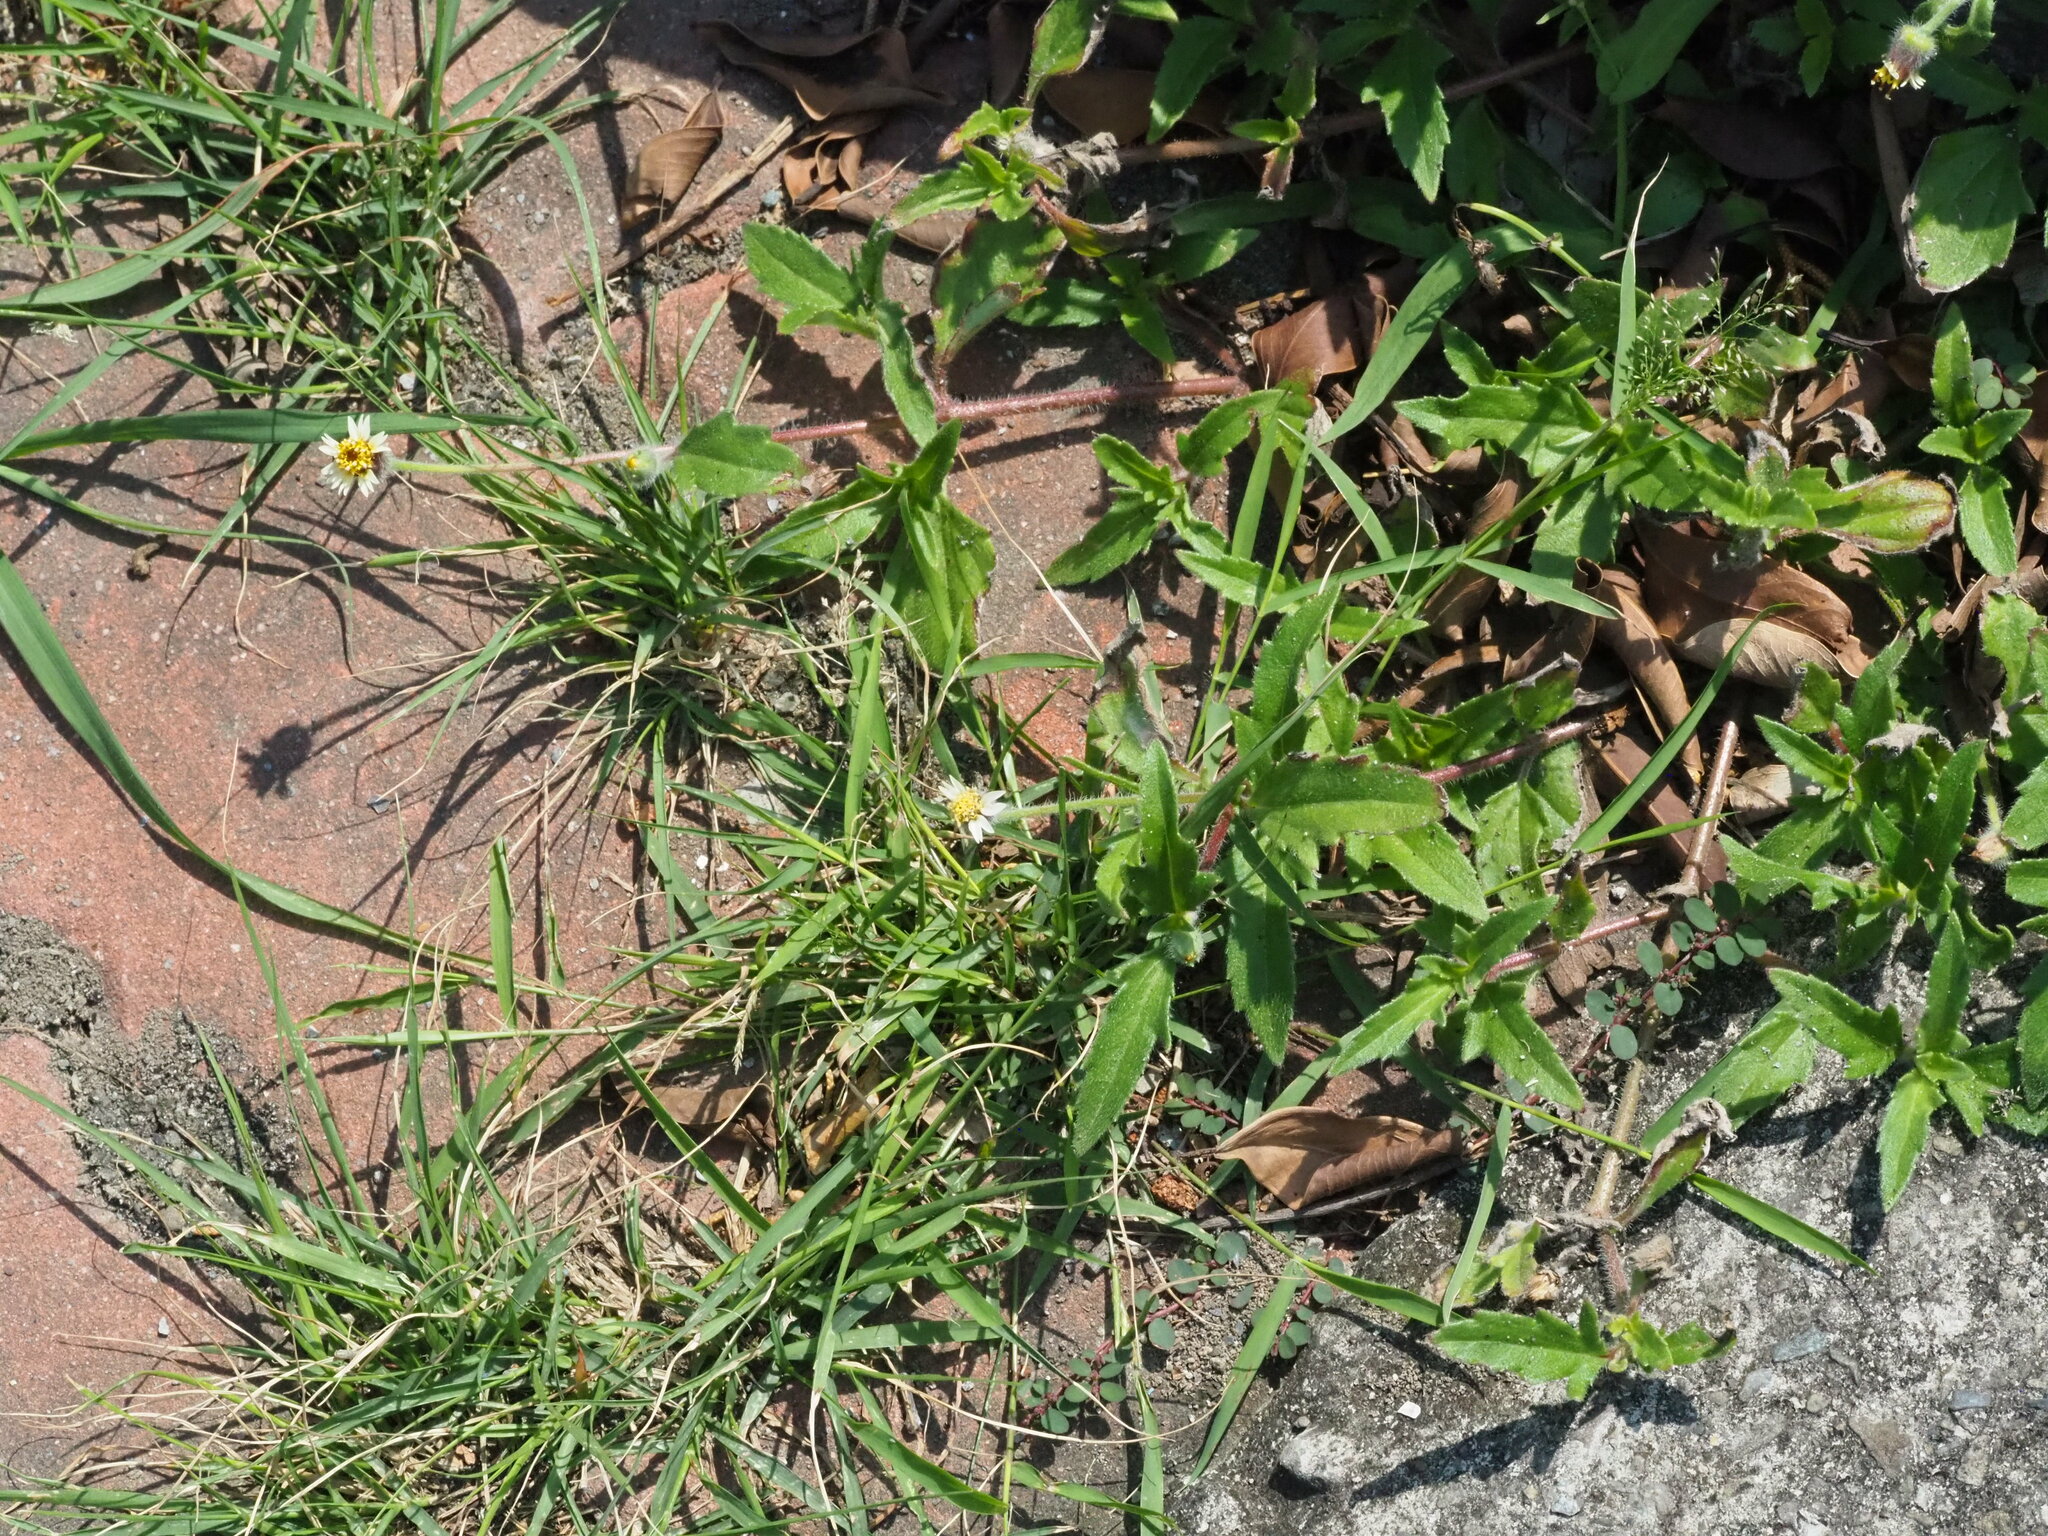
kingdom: Plantae
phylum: Tracheophyta
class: Magnoliopsida
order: Asterales
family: Asteraceae
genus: Tridax
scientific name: Tridax procumbens
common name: Coatbuttons
